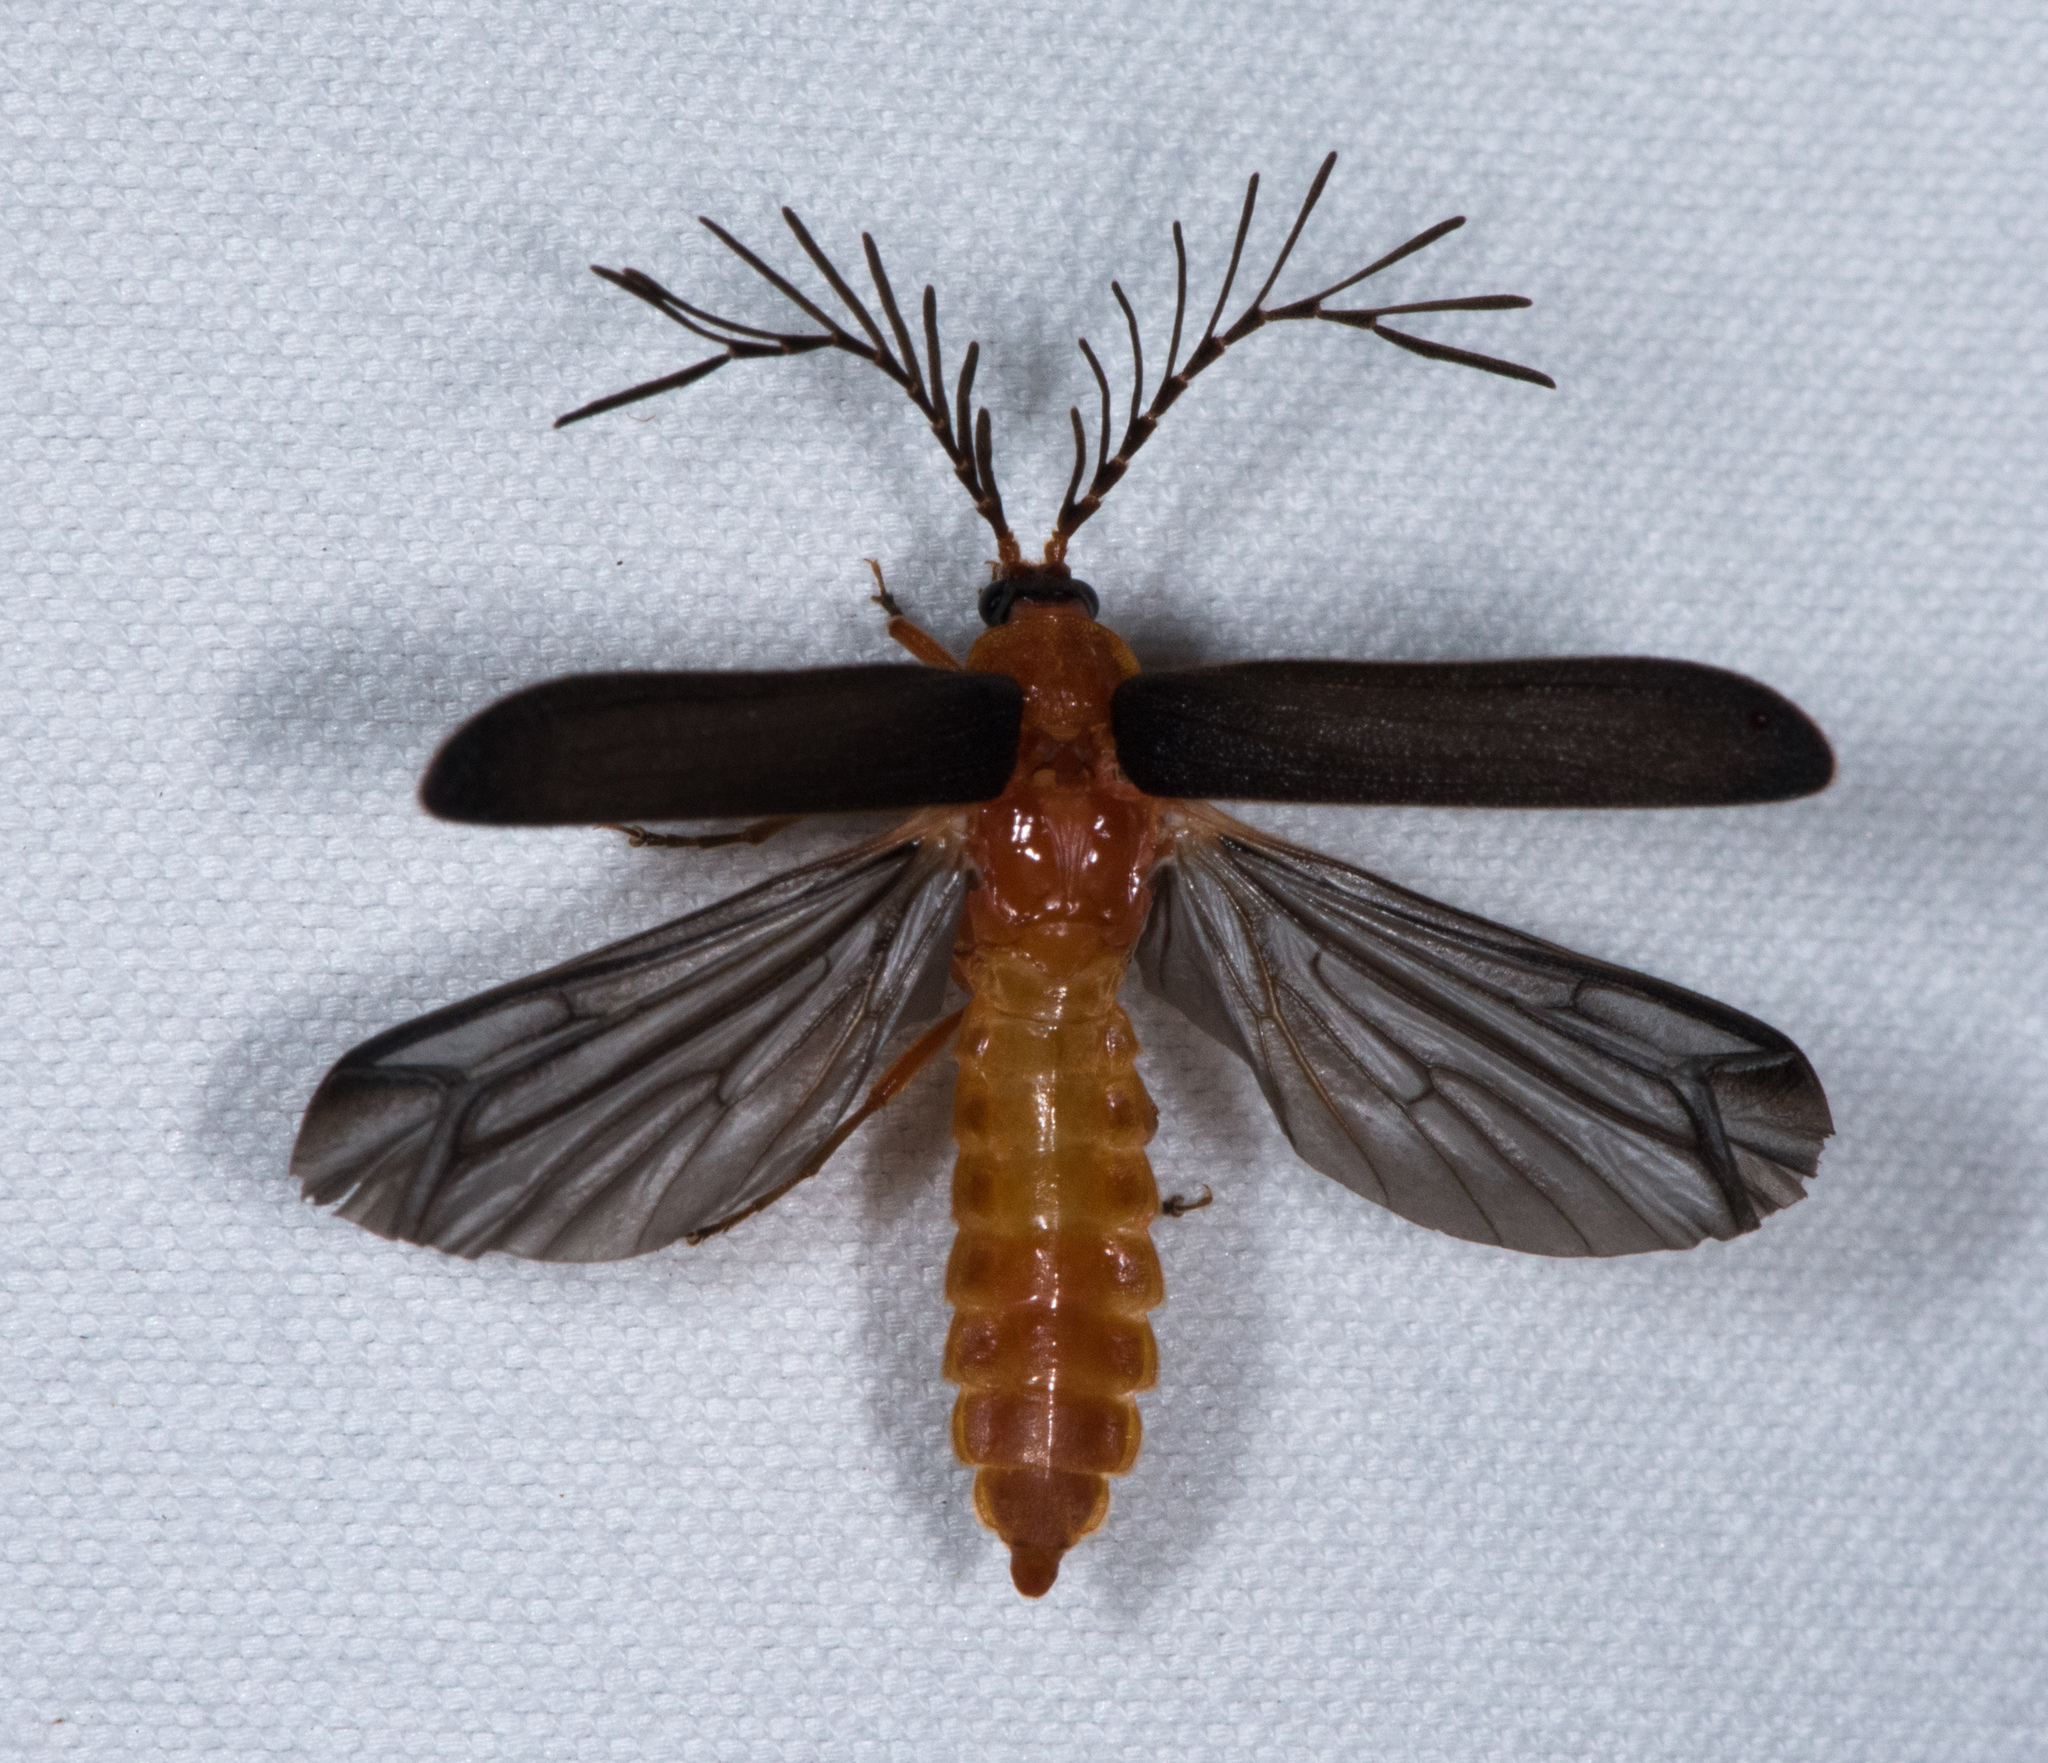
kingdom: Animalia
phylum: Arthropoda
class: Insecta
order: Coleoptera
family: Lampyridae
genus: Pterotus
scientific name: Pterotus obscuripennis
